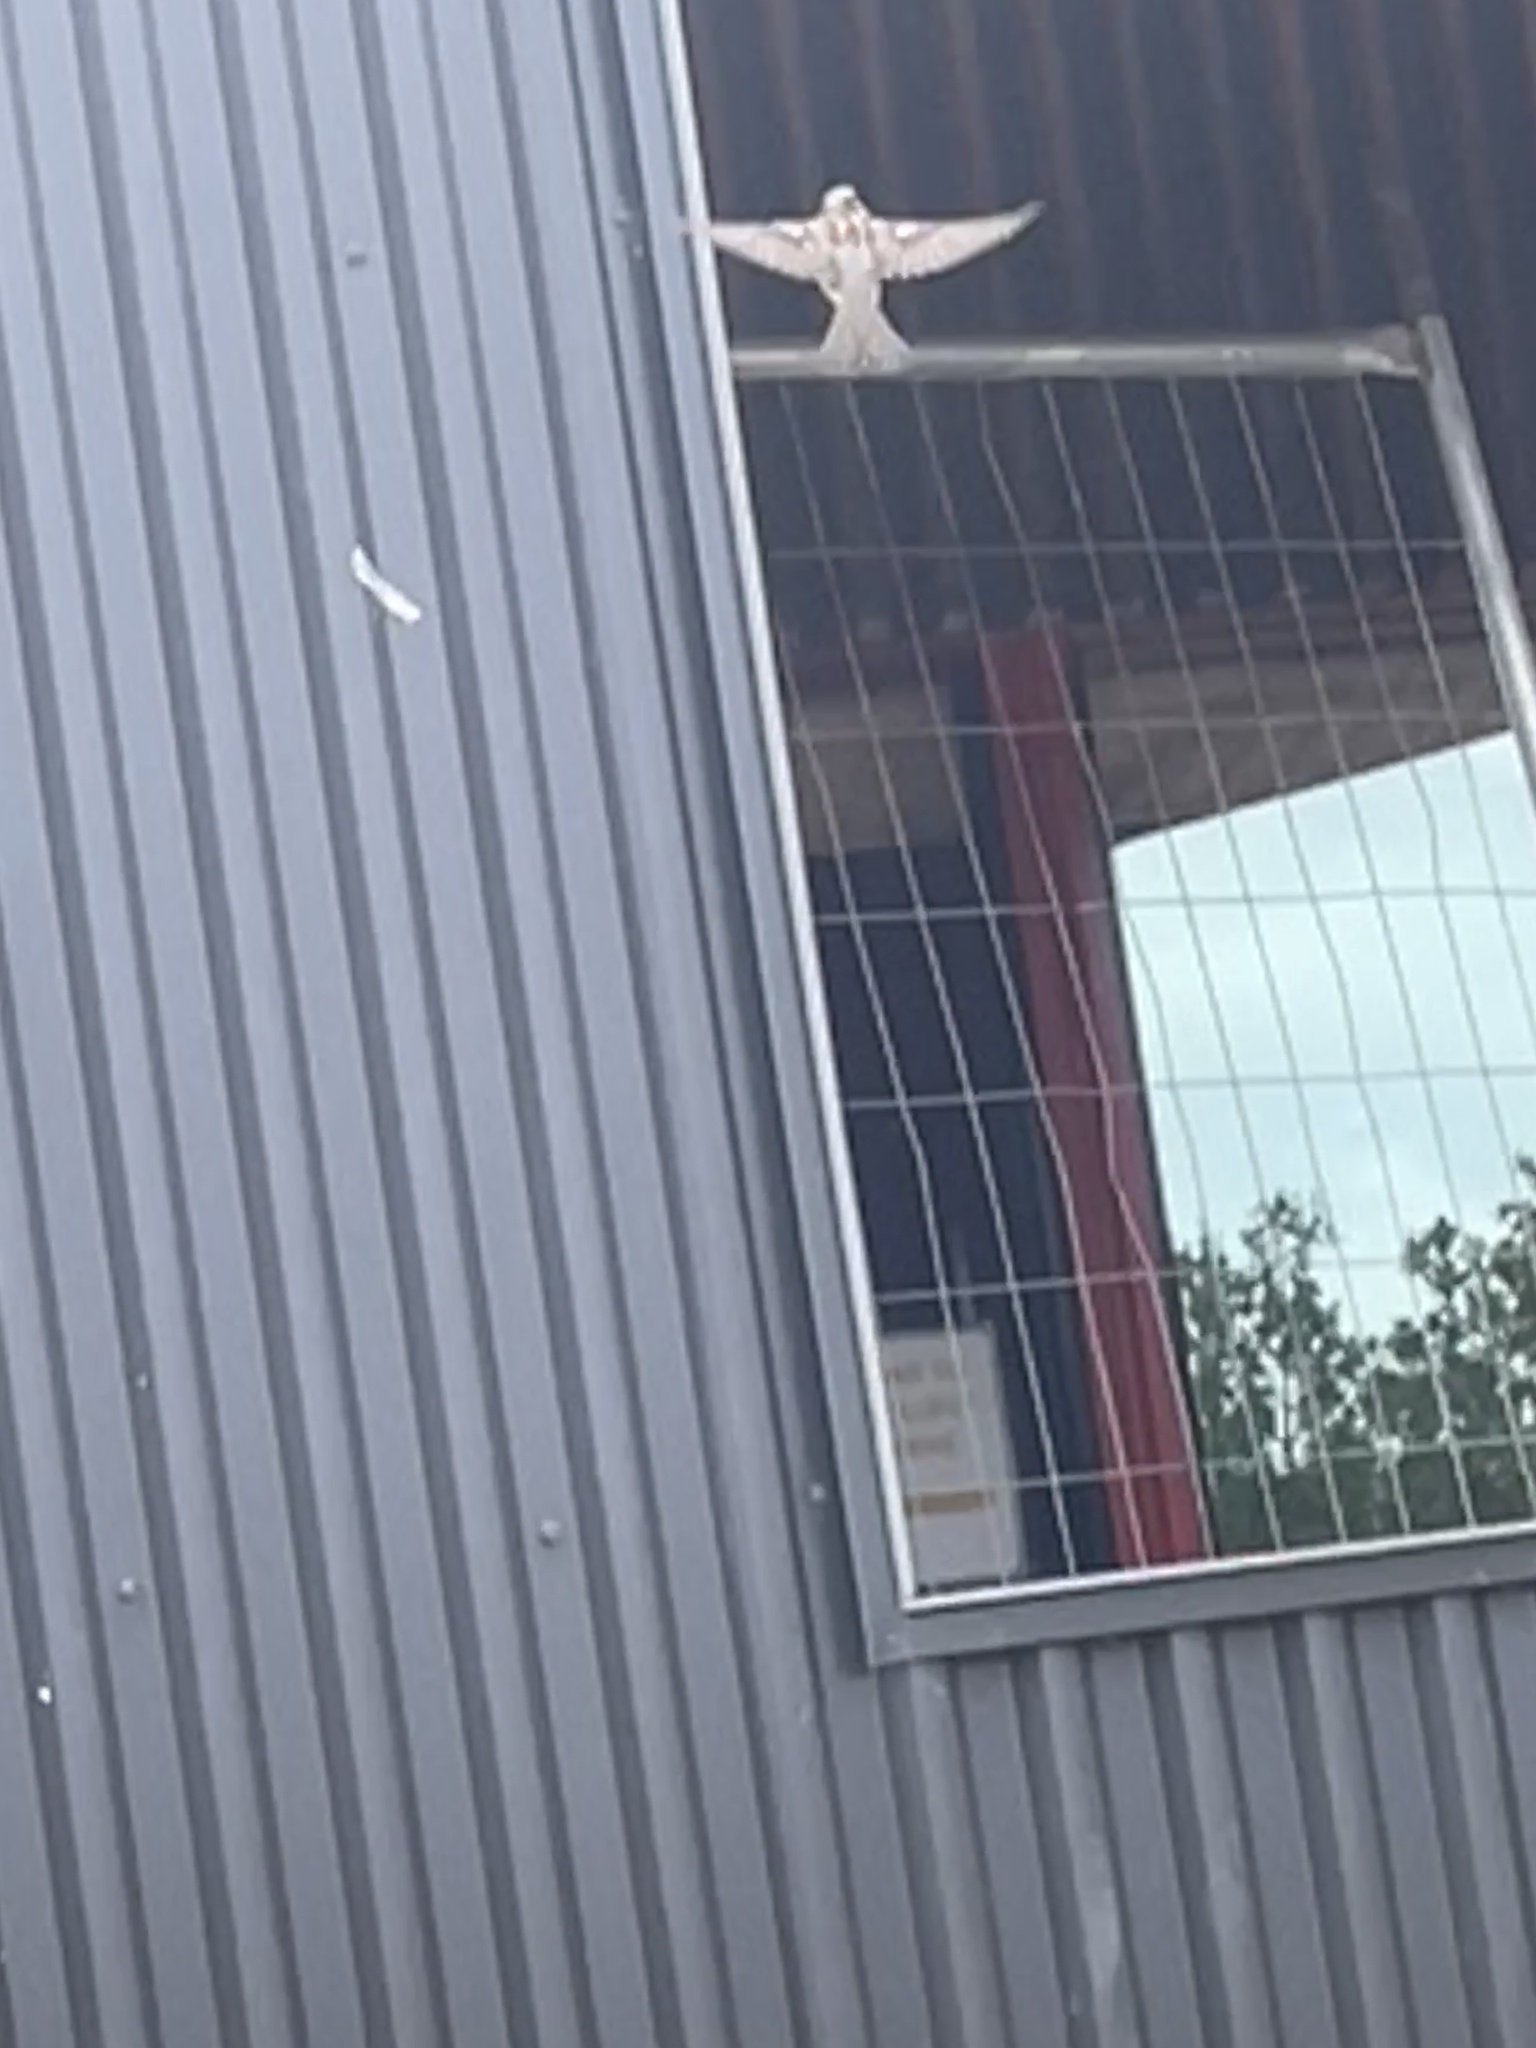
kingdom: Animalia
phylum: Chordata
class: Aves
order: Passeriformes
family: Passeridae
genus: Passer
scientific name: Passer domesticus
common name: House sparrow
